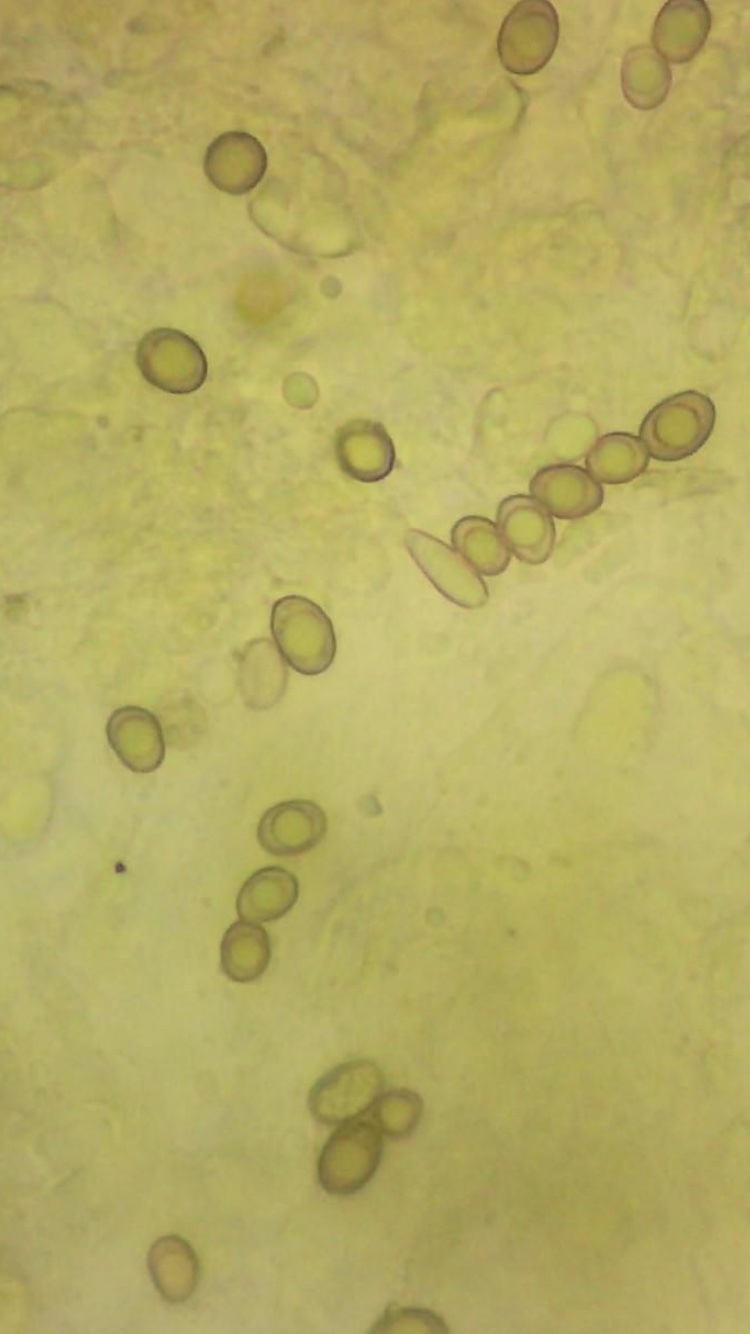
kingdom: Fungi
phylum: Basidiomycota
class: Agaricomycetes
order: Boletales
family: Boletinellaceae
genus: Phlebopus
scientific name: Phlebopus marginatus
